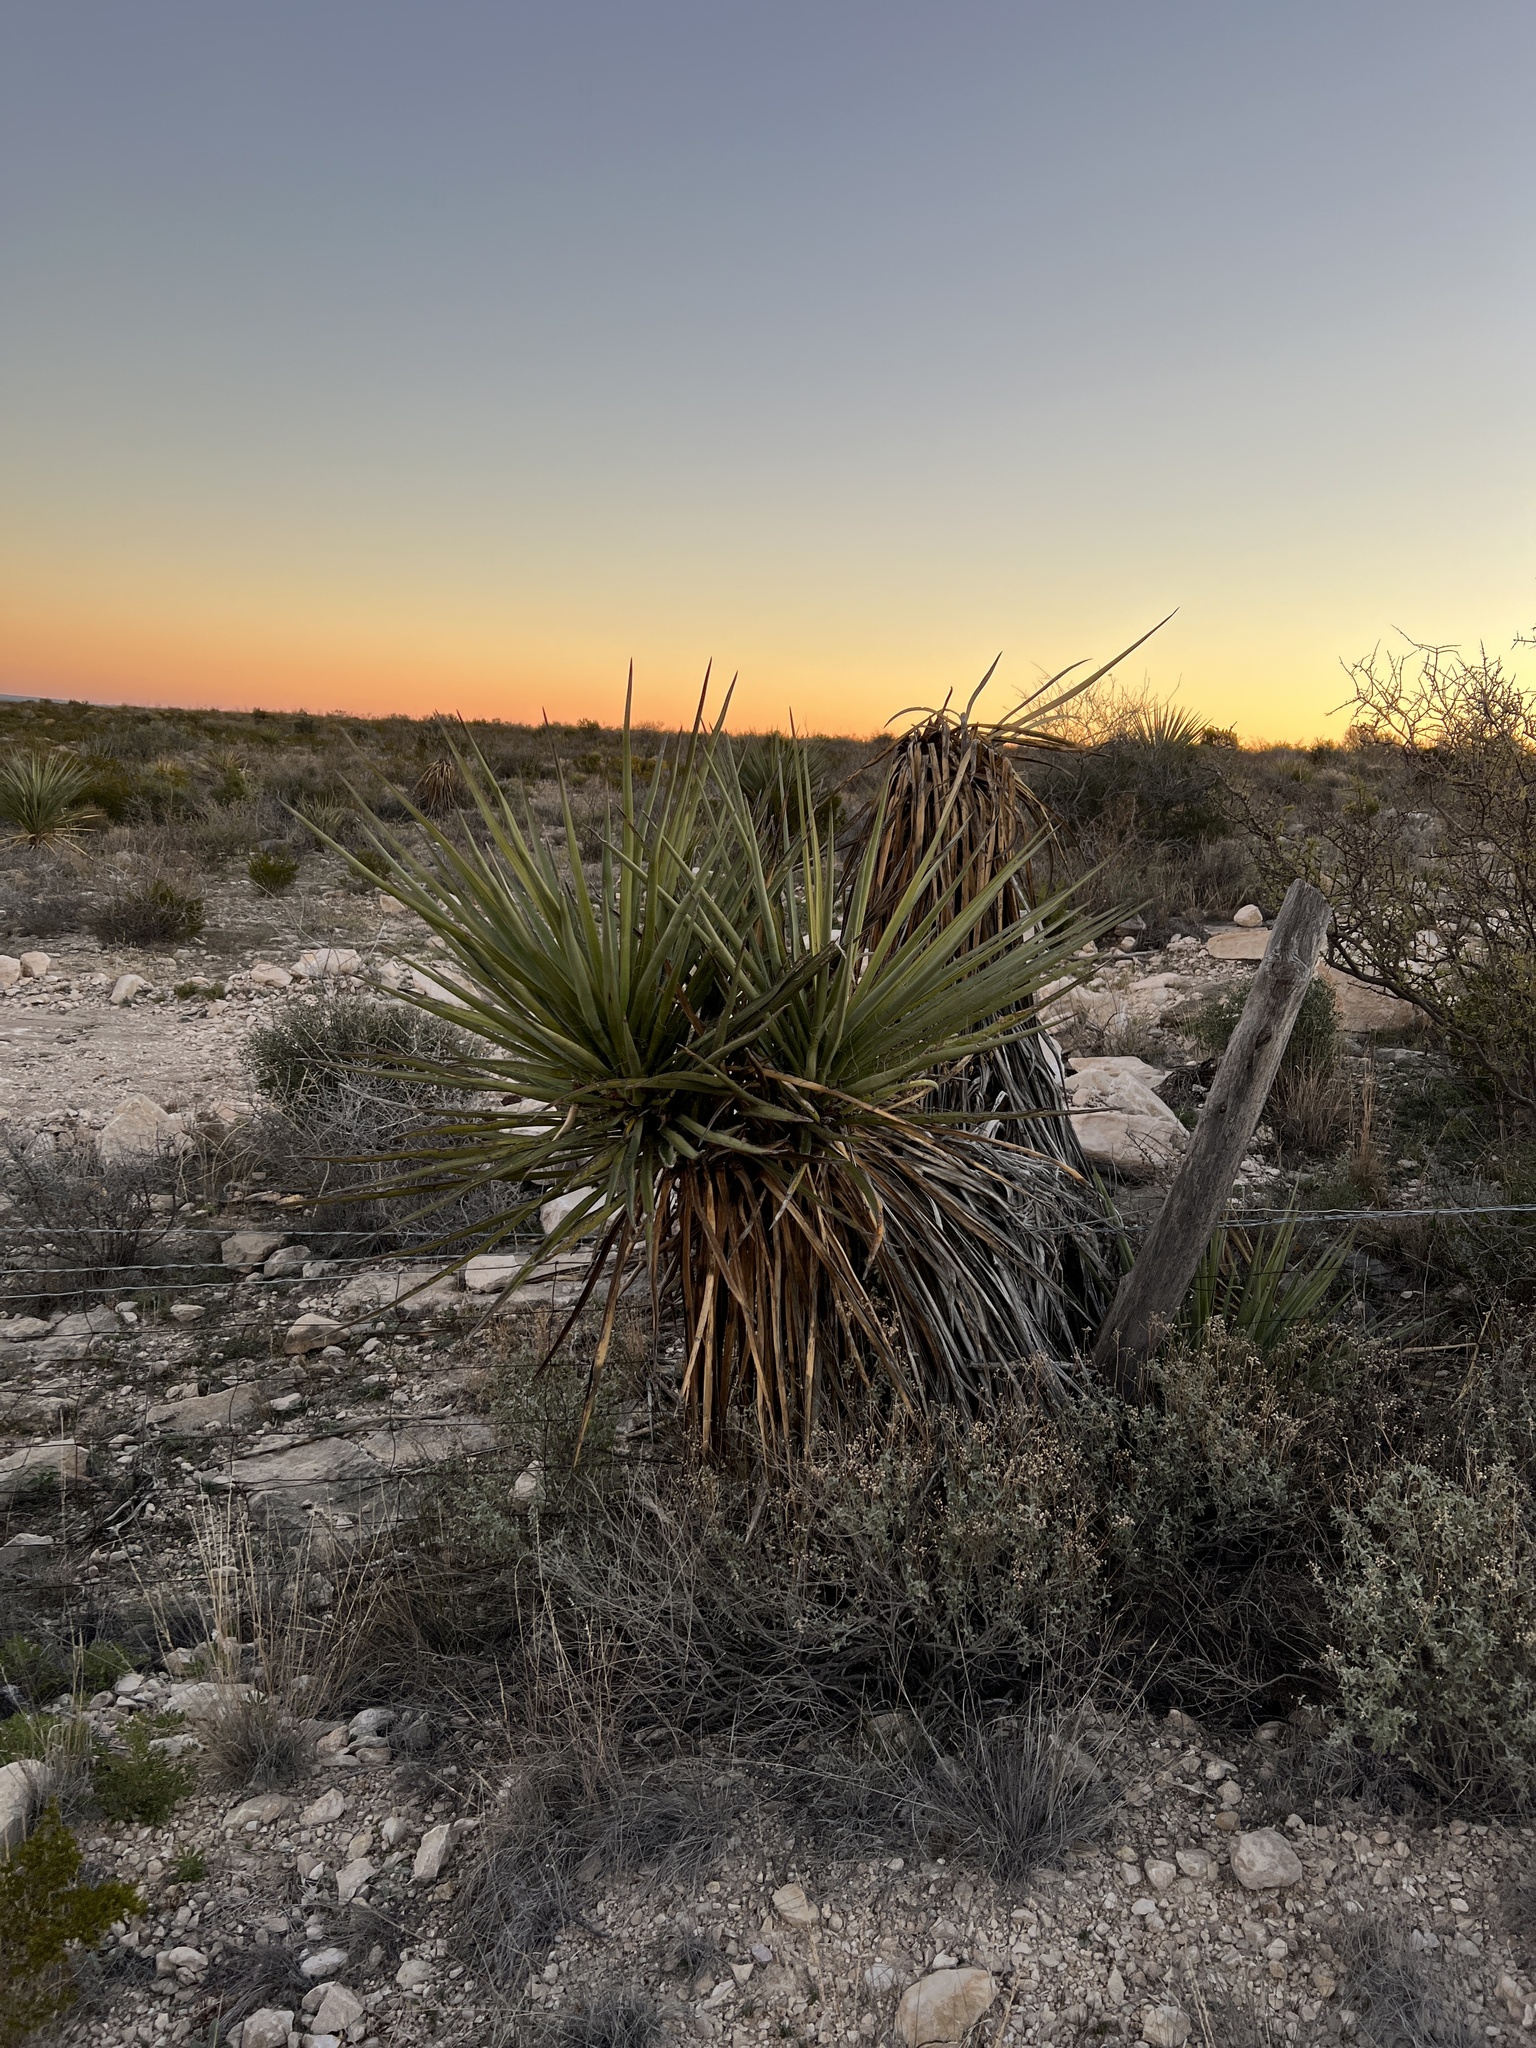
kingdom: Plantae
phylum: Tracheophyta
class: Liliopsida
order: Asparagales
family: Asparagaceae
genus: Yucca
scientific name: Yucca treculiana
